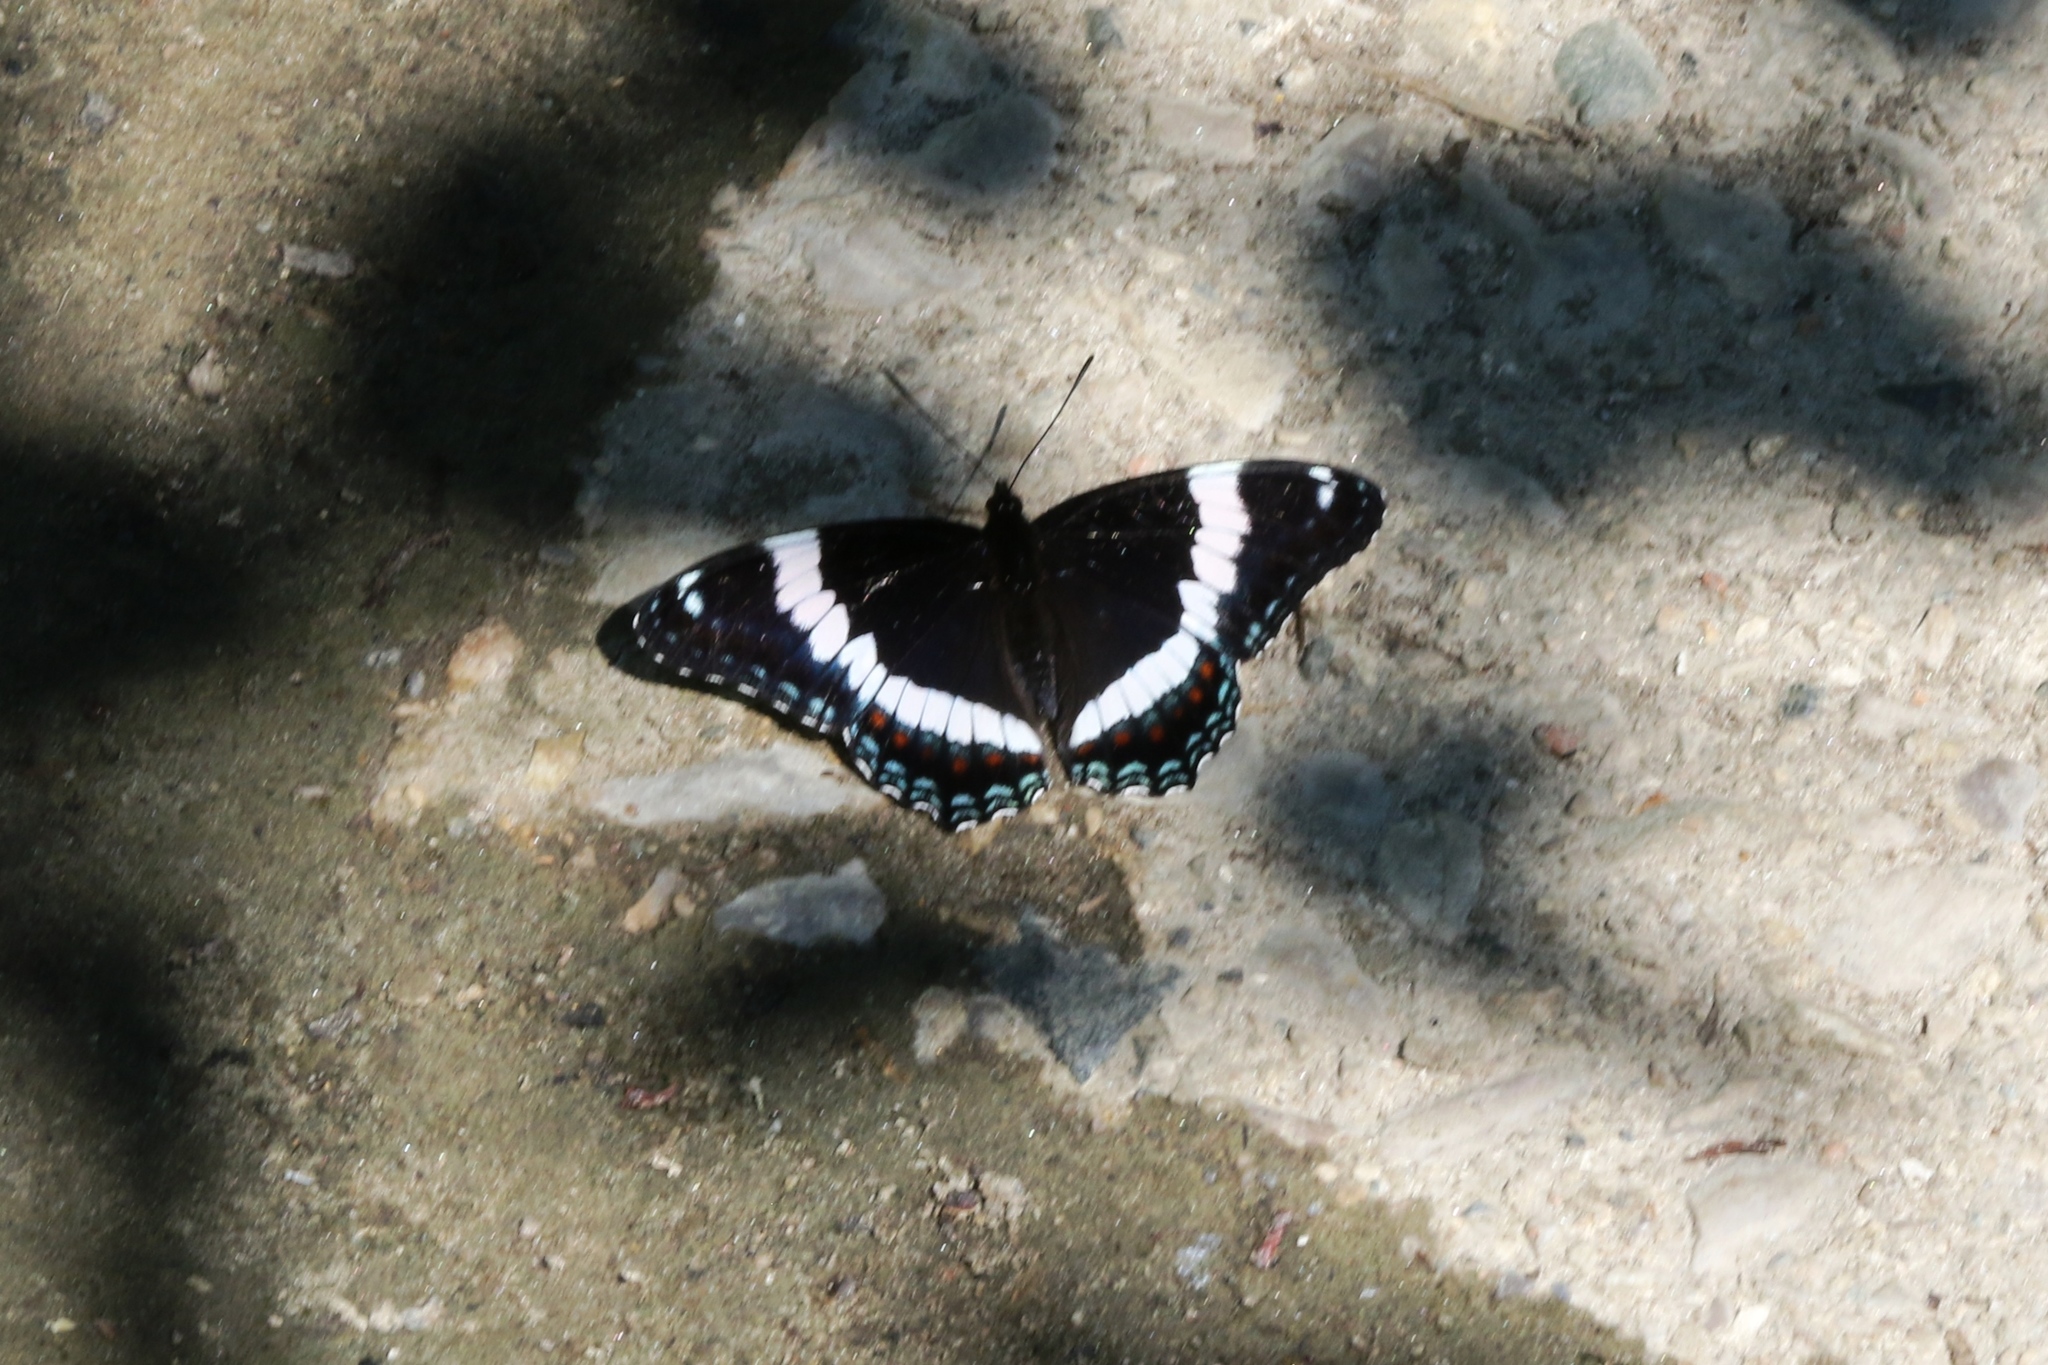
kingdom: Animalia
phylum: Arthropoda
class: Insecta
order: Lepidoptera
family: Nymphalidae
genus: Limenitis
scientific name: Limenitis arthemis
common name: Red-spotted admiral
